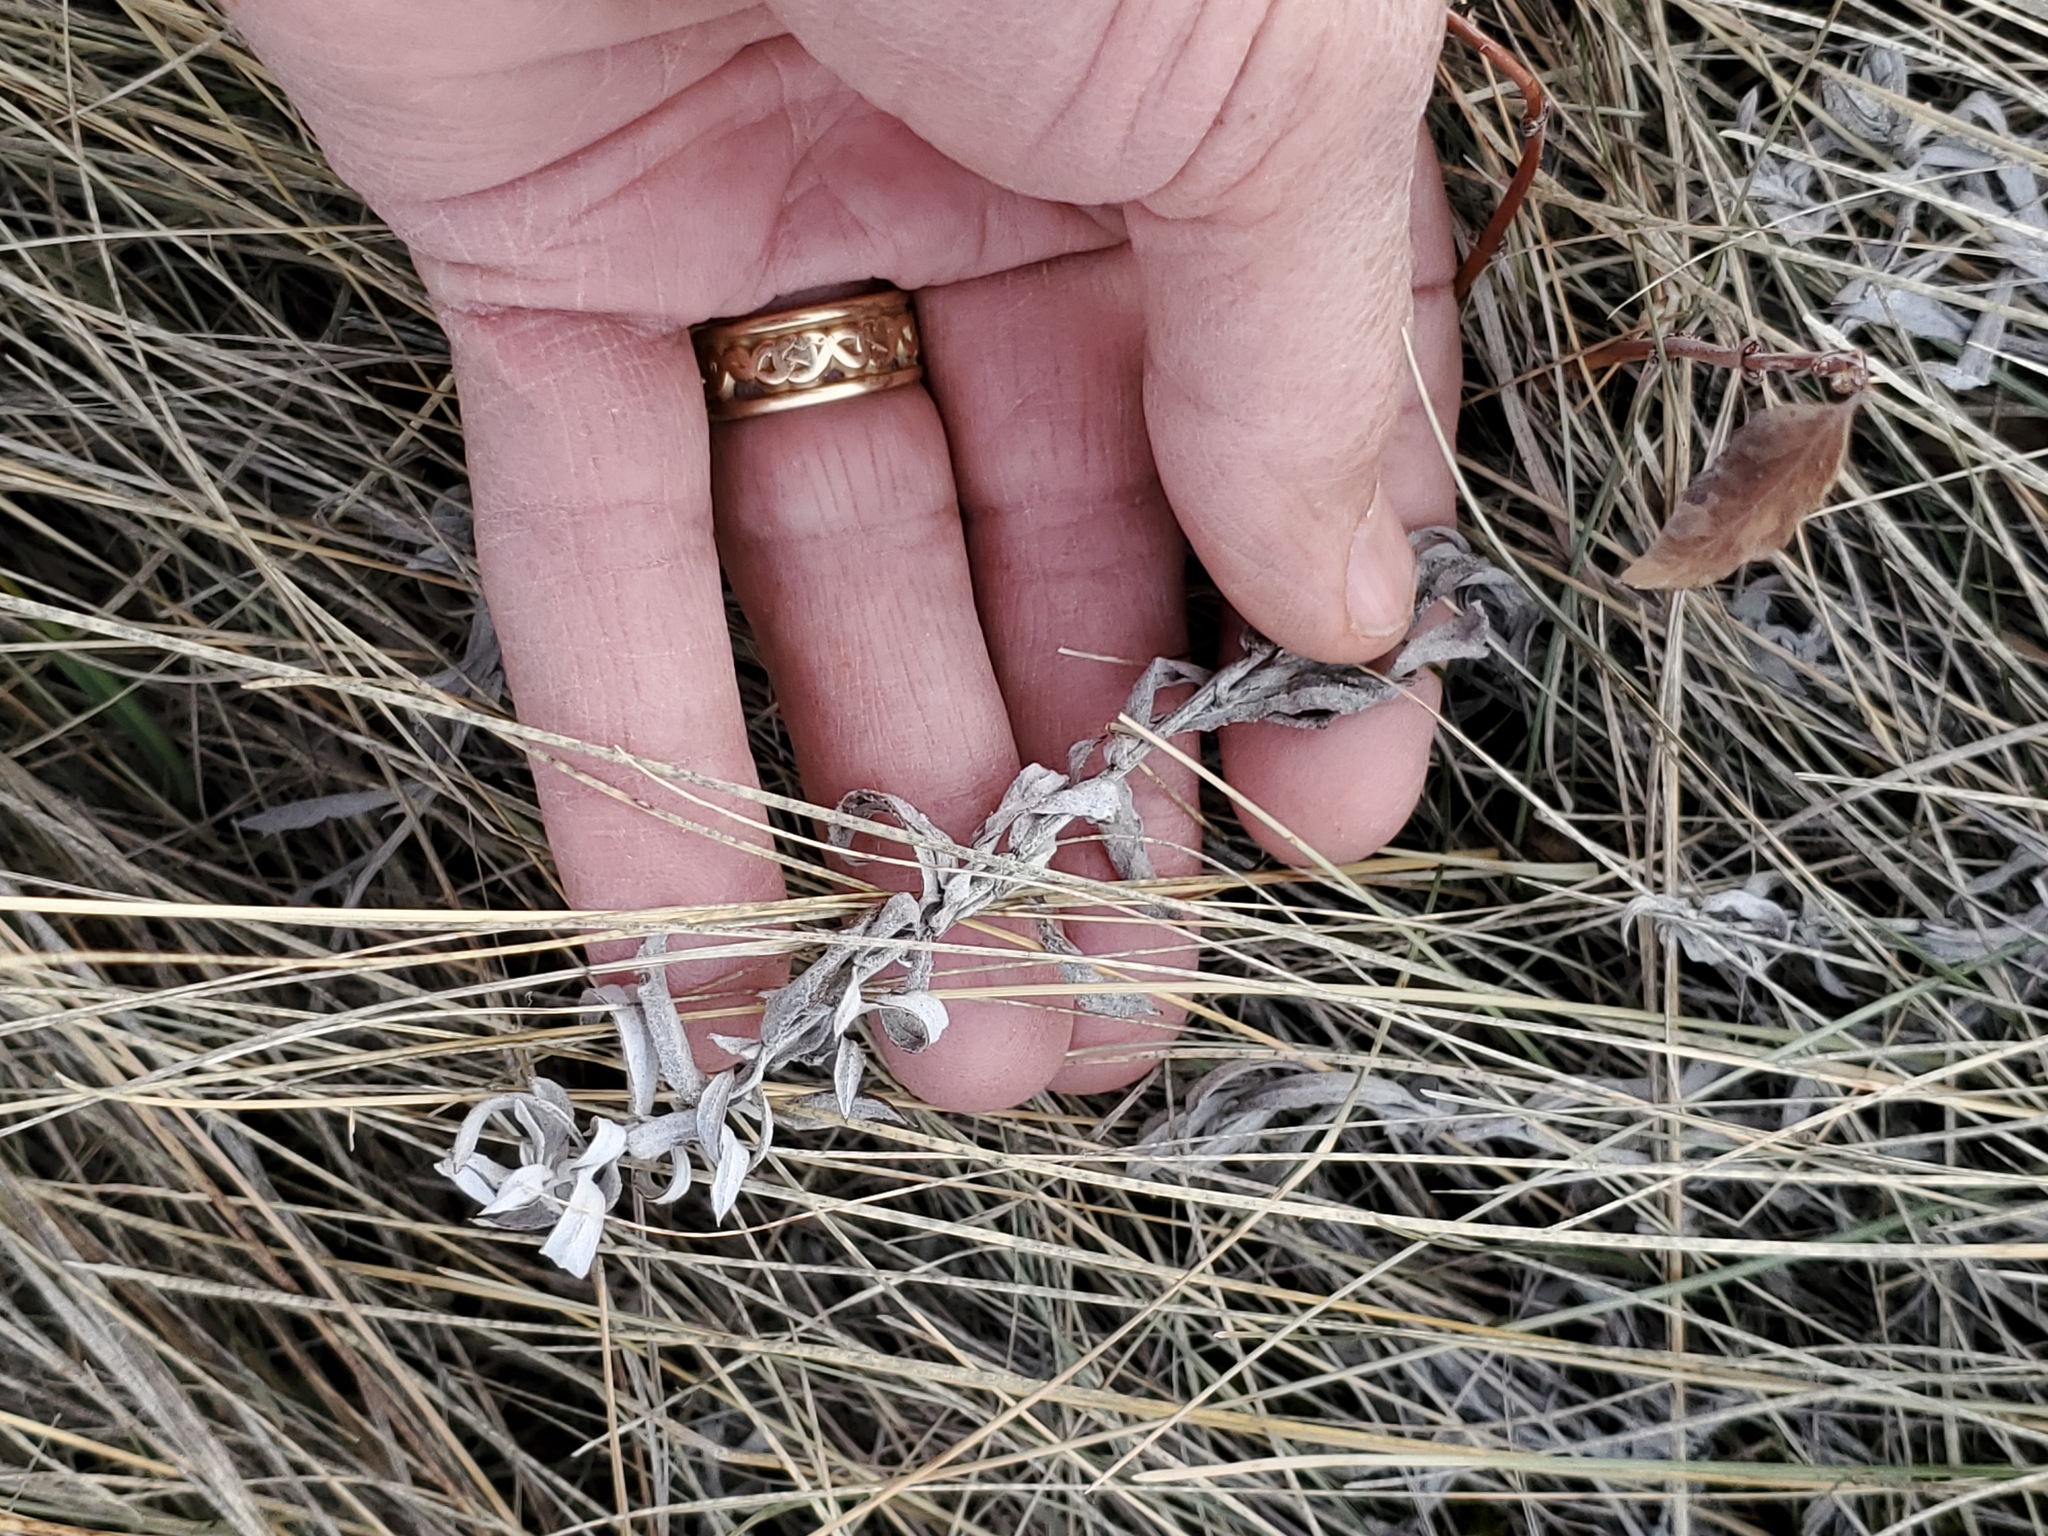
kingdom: Plantae
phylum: Tracheophyta
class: Magnoliopsida
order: Asterales
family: Asteraceae
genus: Artemisia
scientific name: Artemisia ludoviciana
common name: Western mugwort
